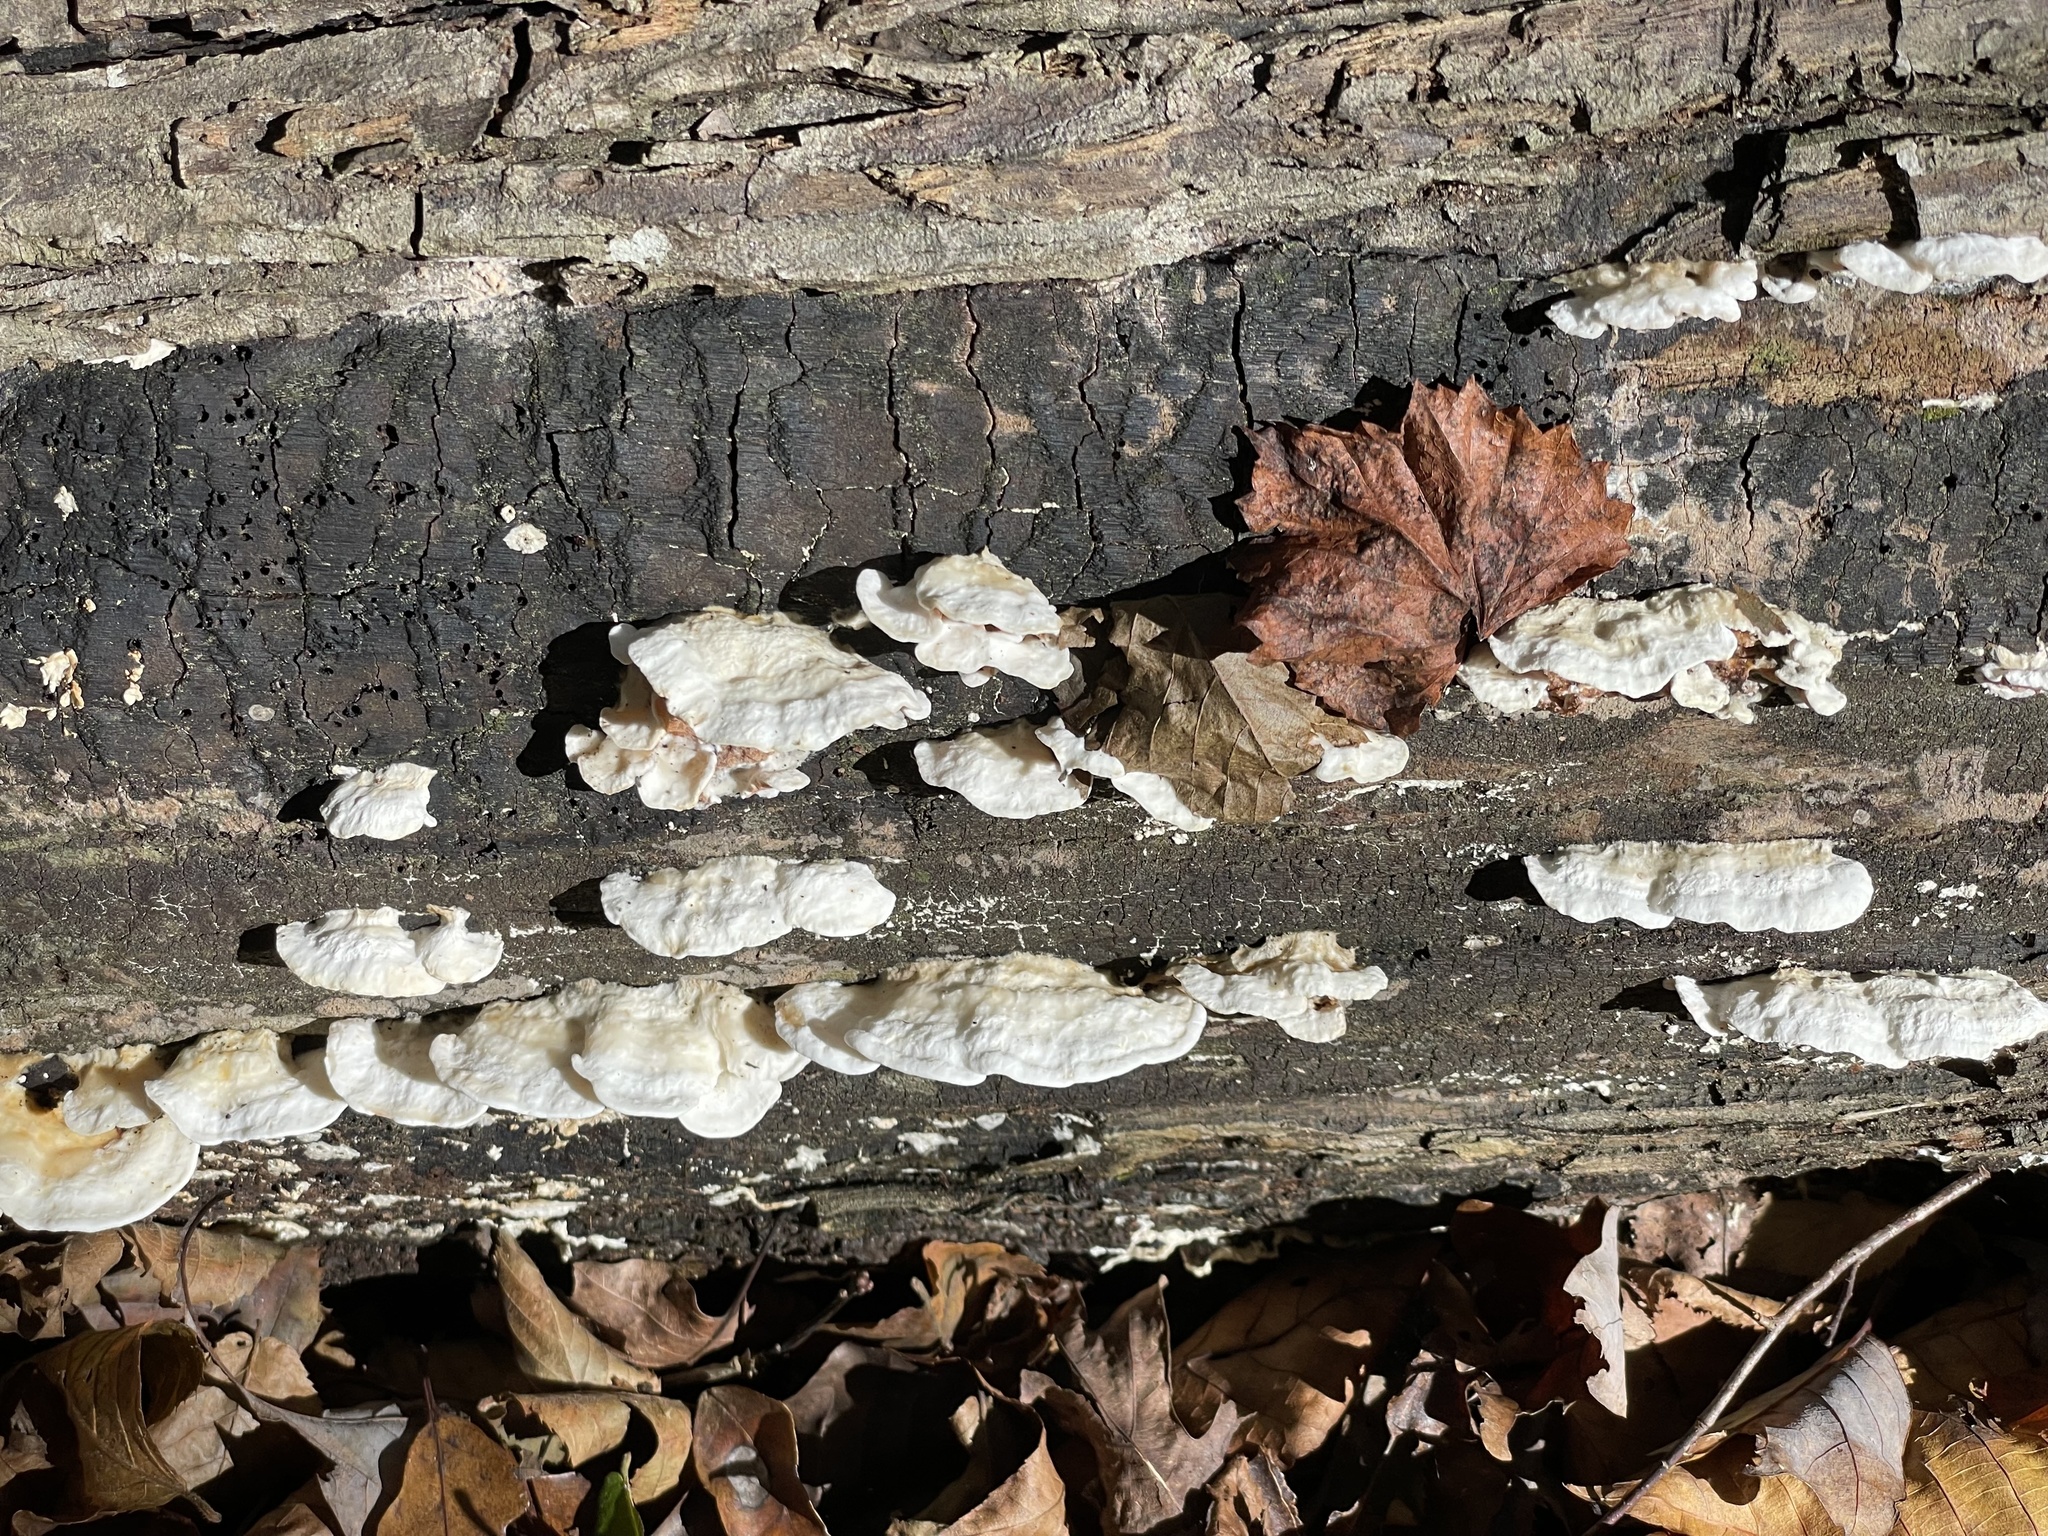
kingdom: Fungi
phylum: Basidiomycota
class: Agaricomycetes
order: Polyporales
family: Irpicaceae
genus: Vitreoporus
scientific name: Vitreoporus dichrous
